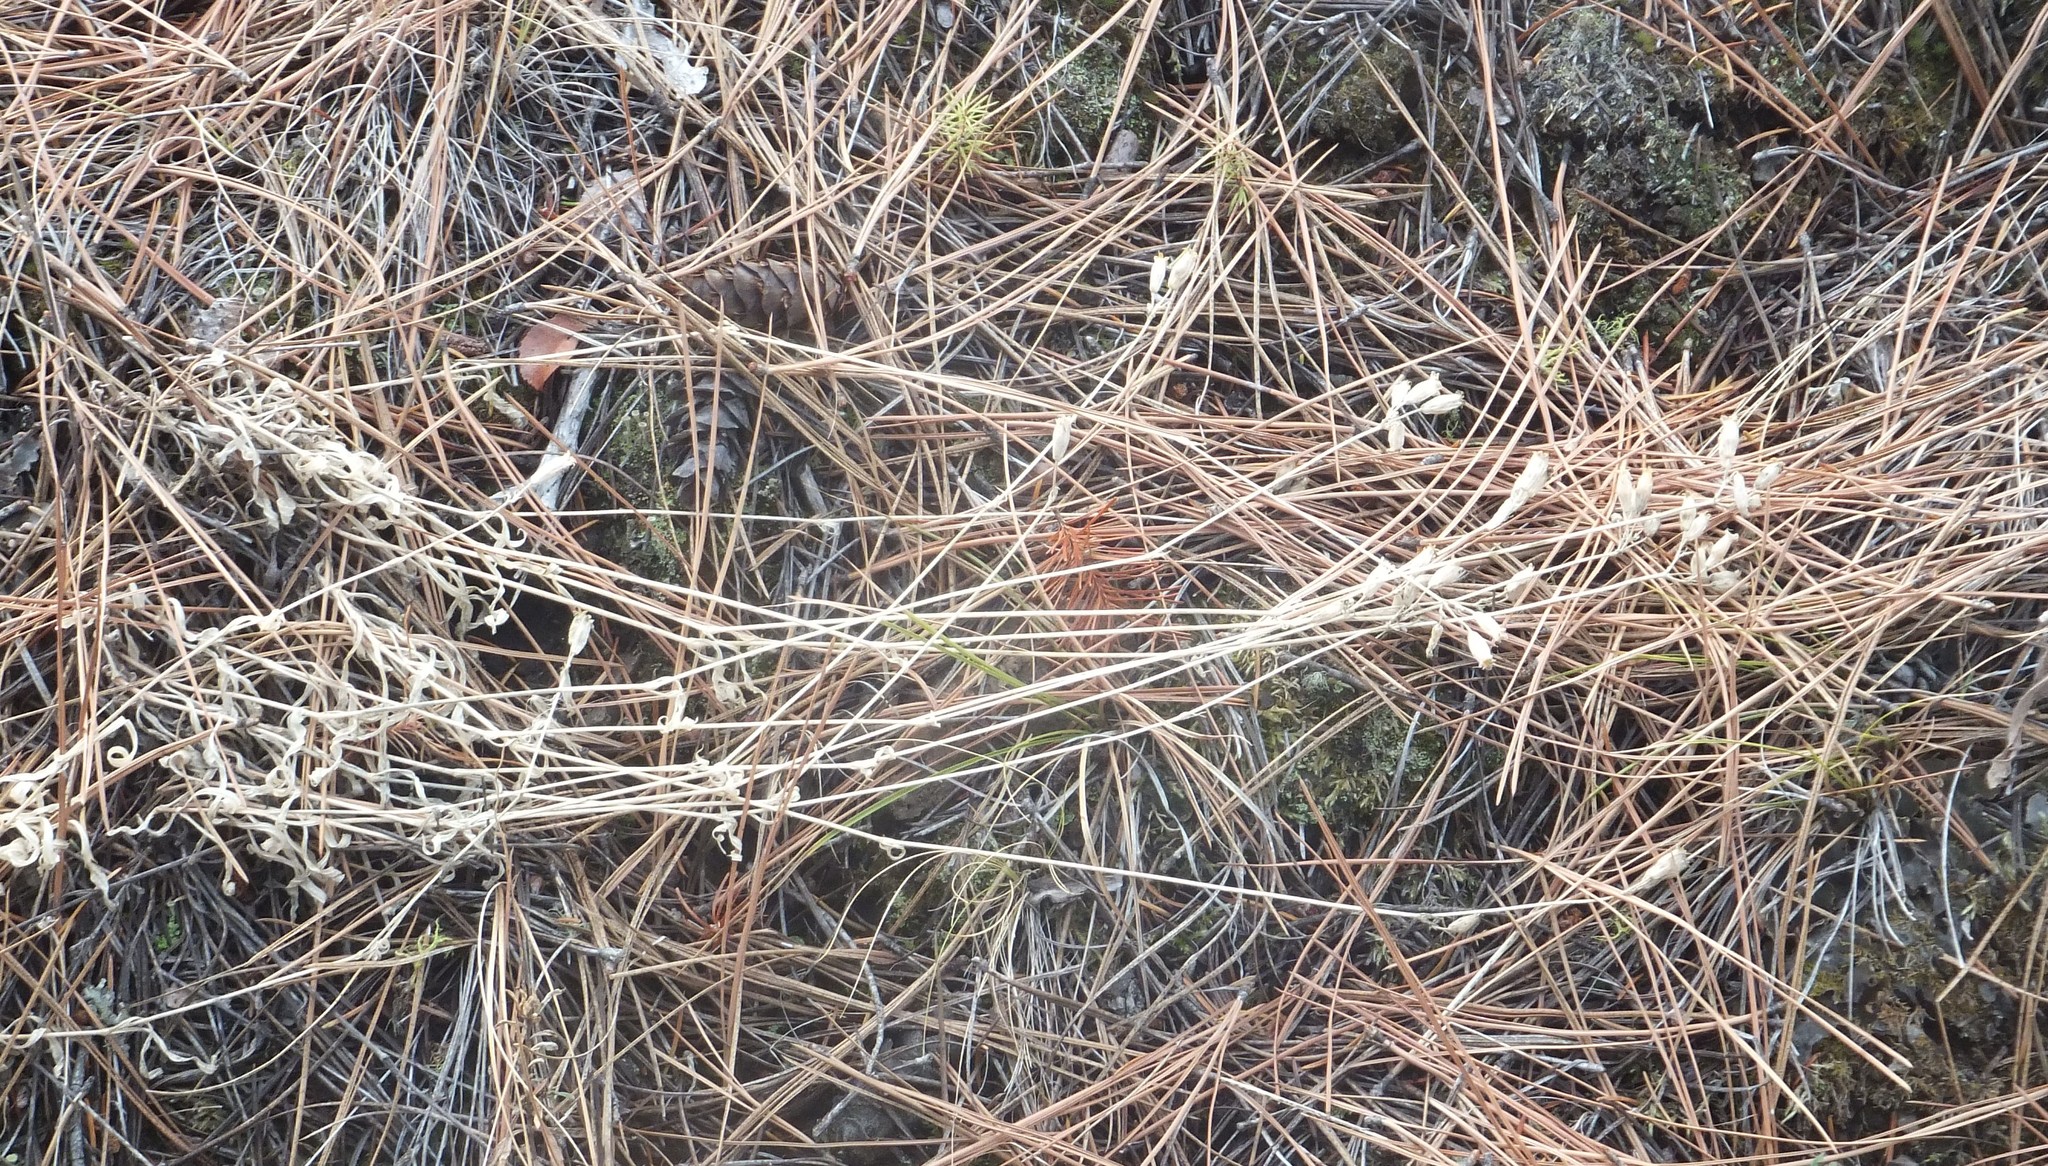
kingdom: Plantae
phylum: Tracheophyta
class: Magnoliopsida
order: Caryophyllales
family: Caryophyllaceae
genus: Silene
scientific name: Silene douglasii
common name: Douglas's catchfly
